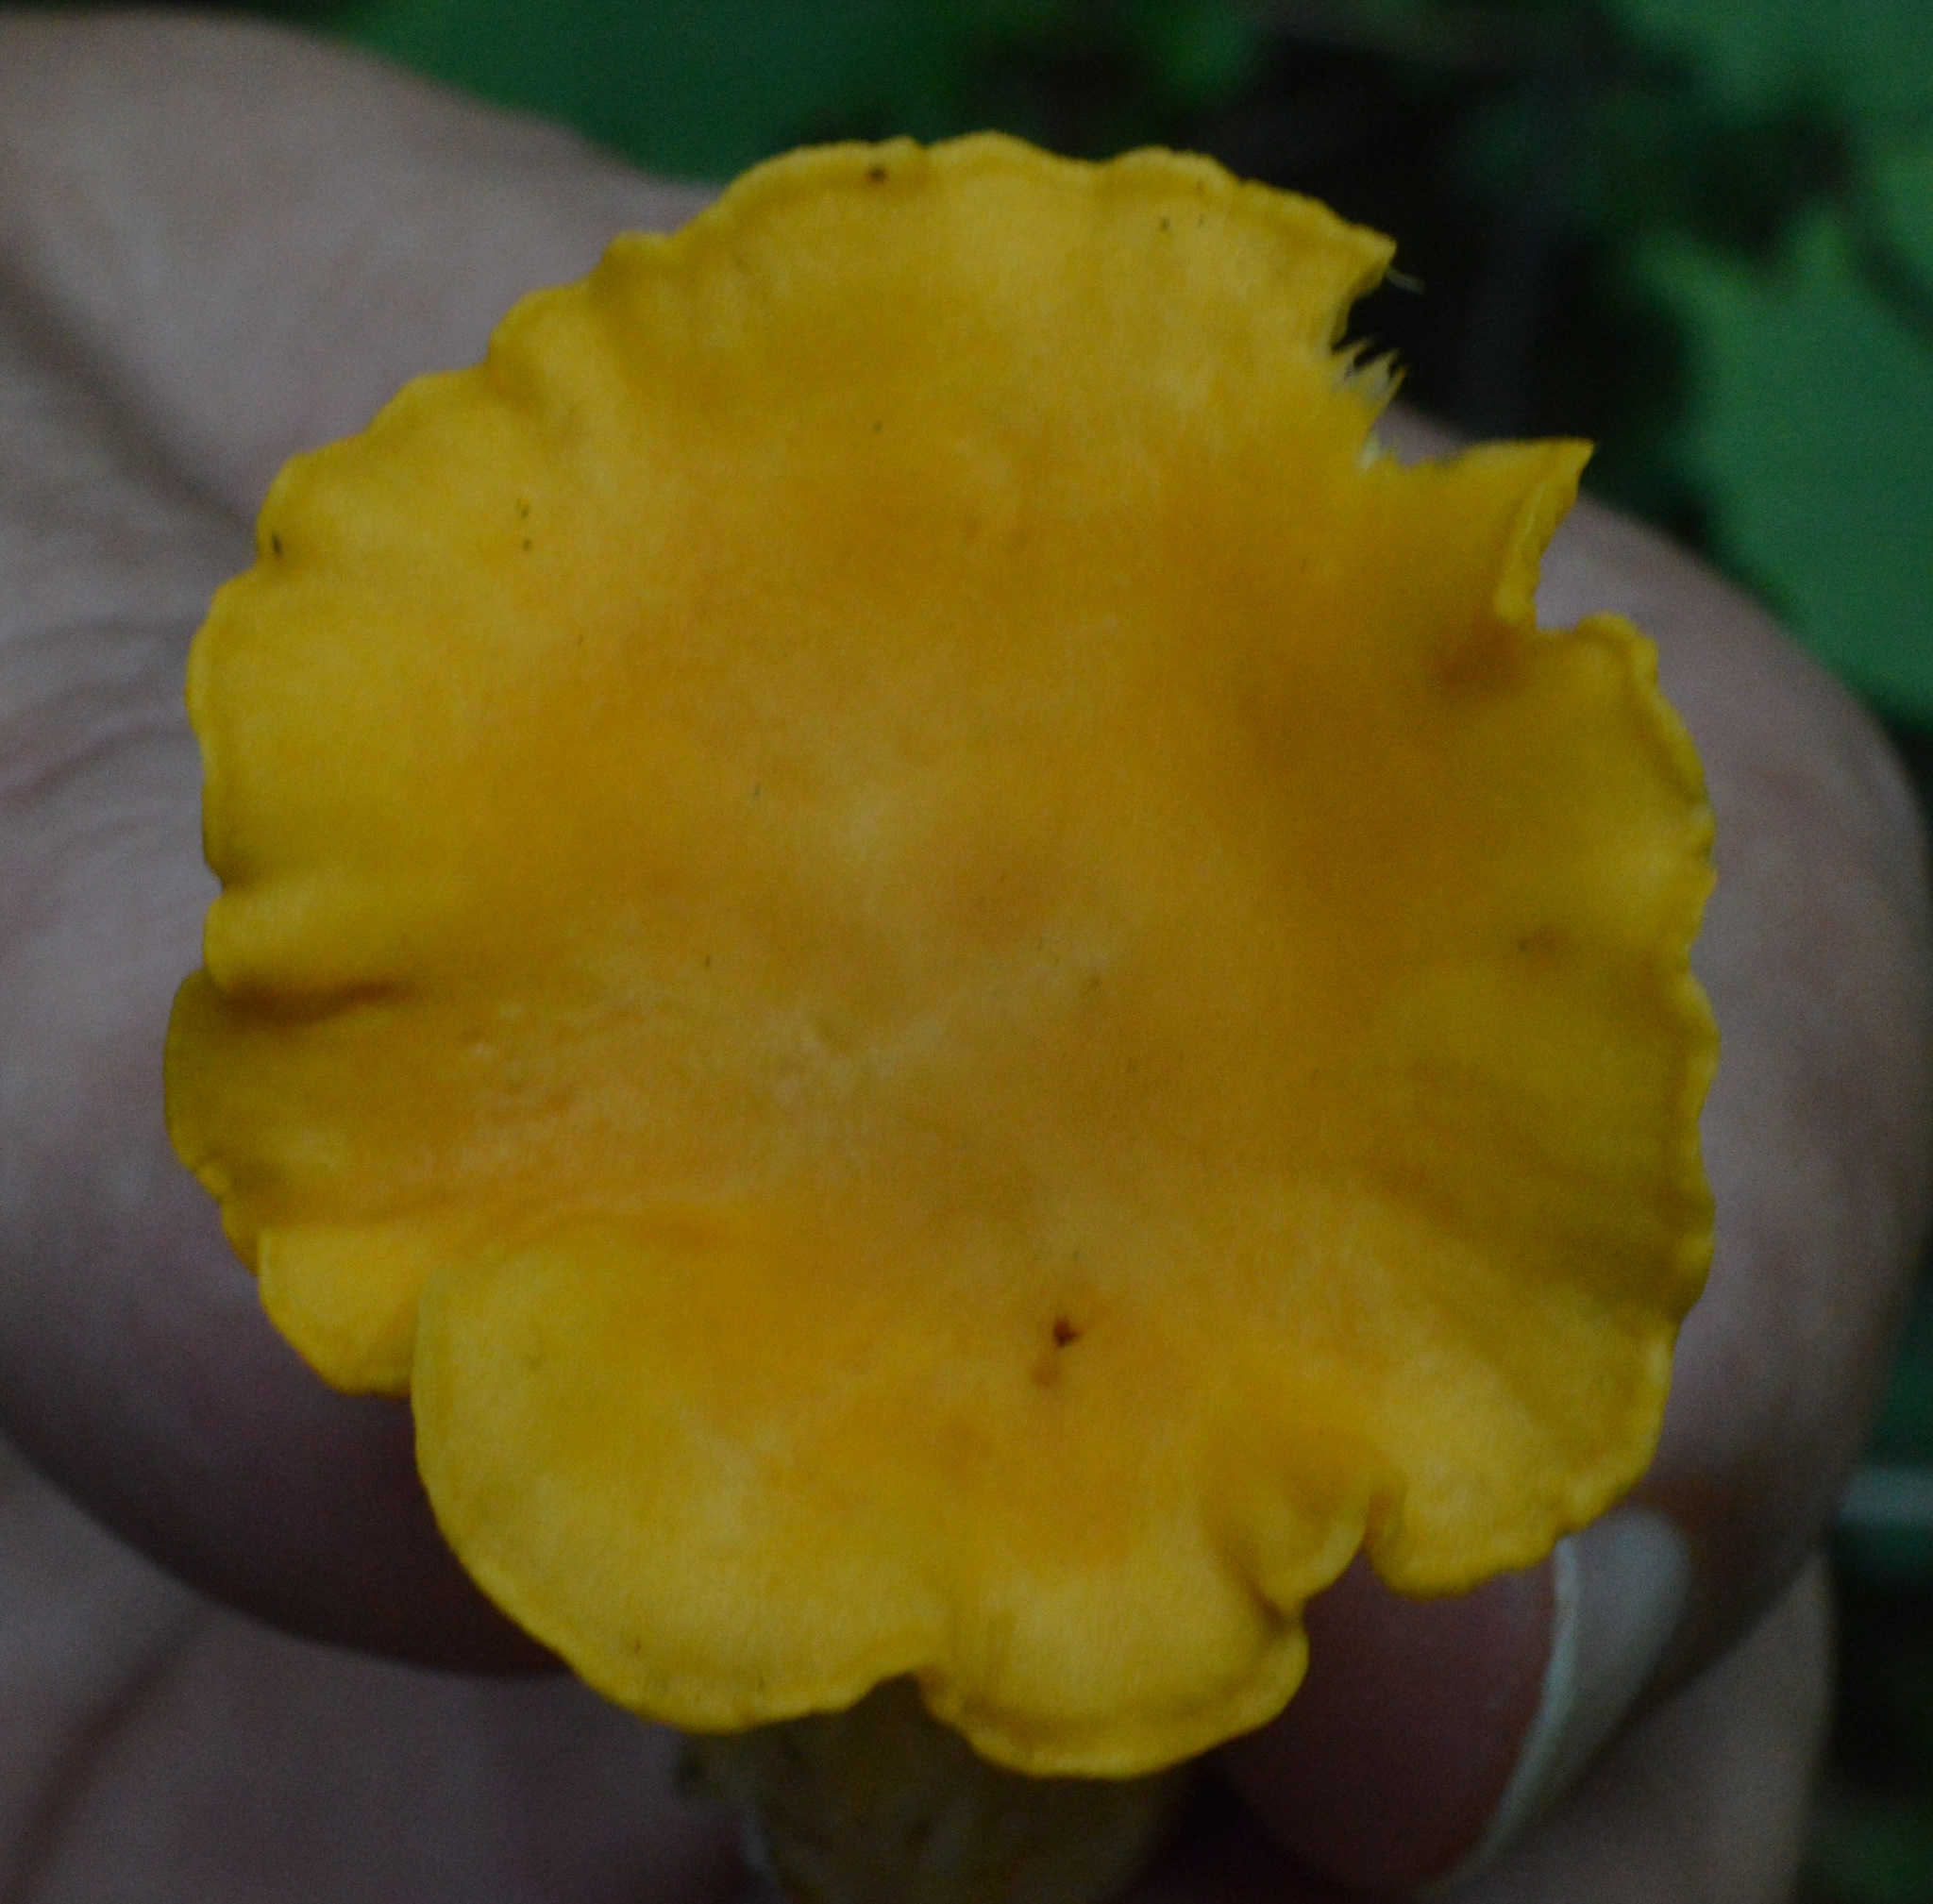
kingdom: Fungi
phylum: Basidiomycota
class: Agaricomycetes
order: Cantharellales
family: Hydnaceae
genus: Cantharellus
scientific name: Cantharellus cibarius
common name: Chanterelle
